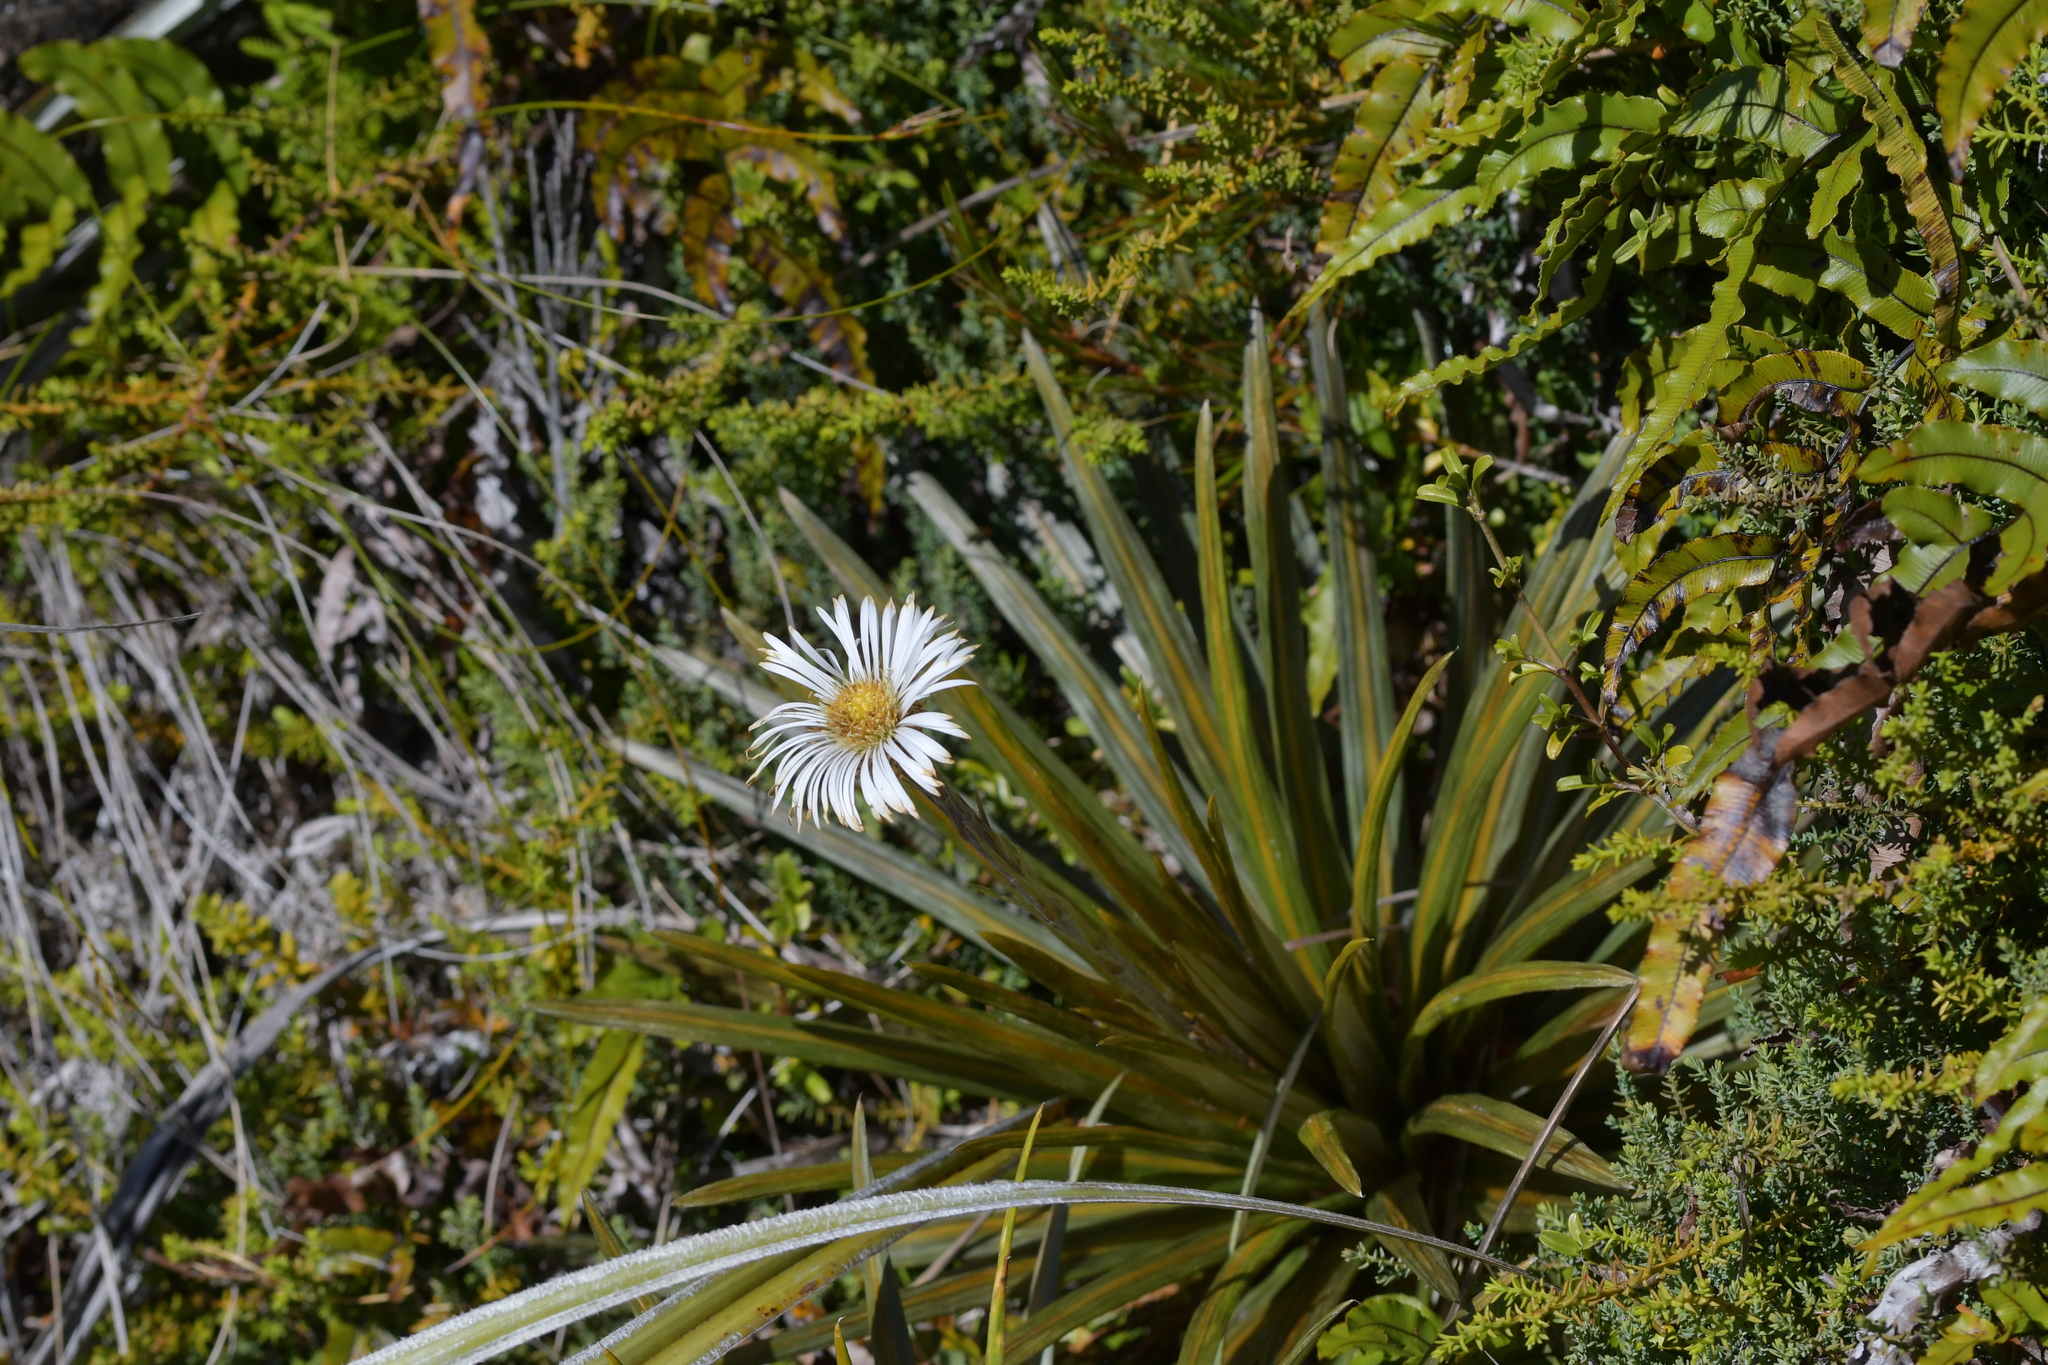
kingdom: Plantae
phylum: Tracheophyta
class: Magnoliopsida
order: Asterales
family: Asteraceae
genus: Celmisia
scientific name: Celmisia armstrongii
